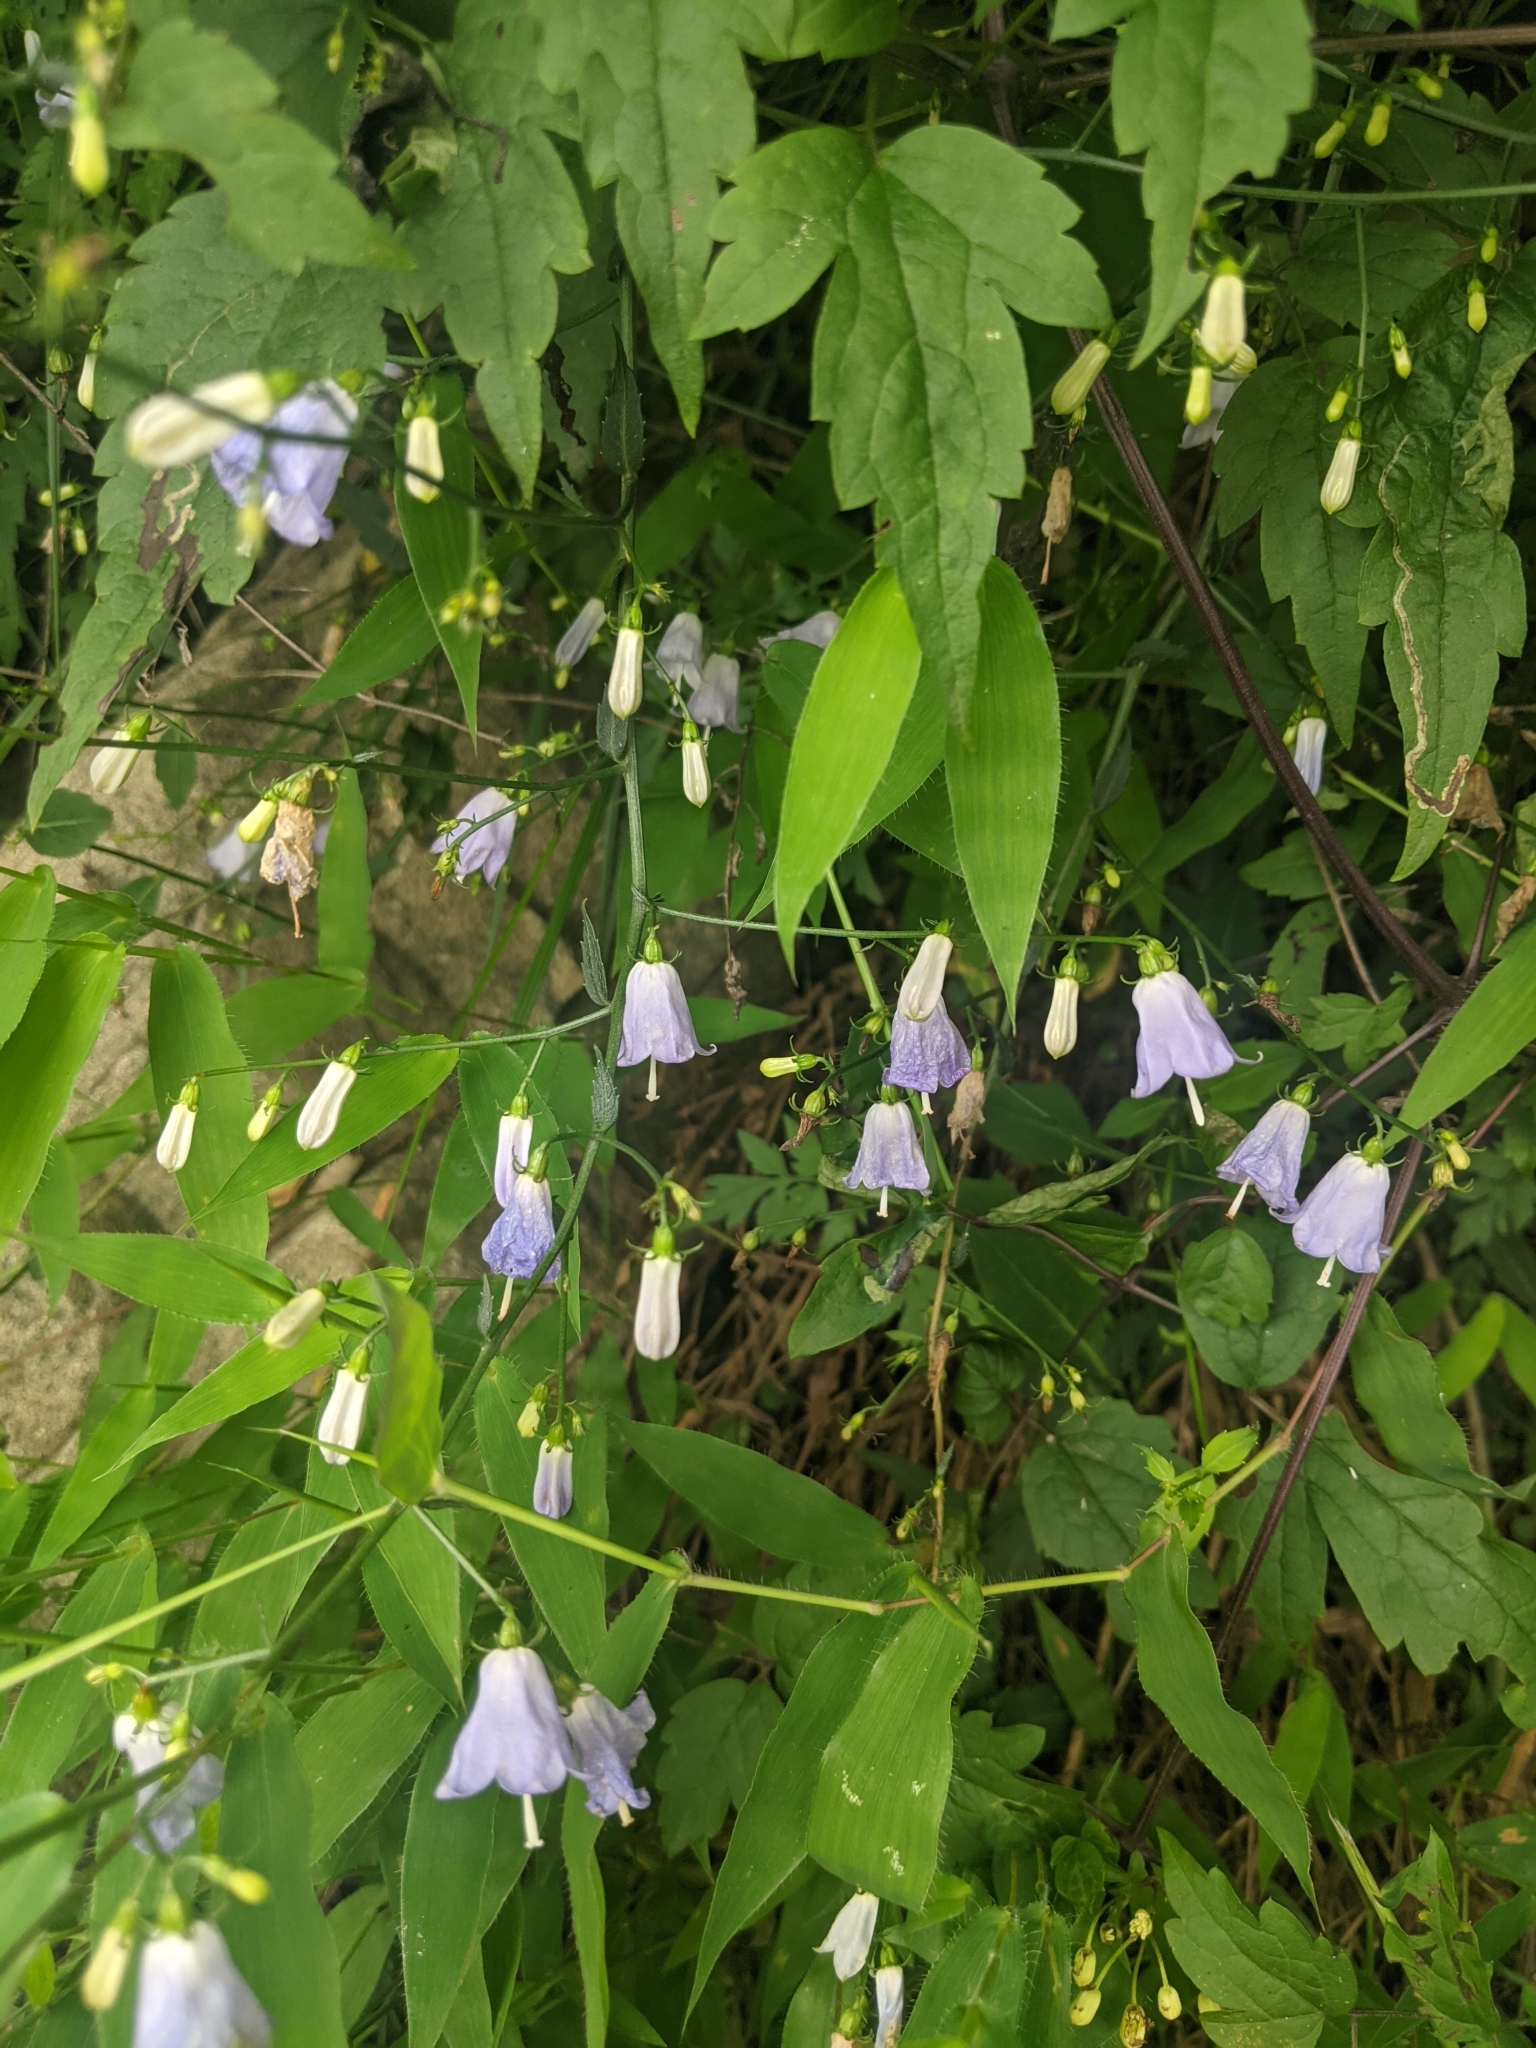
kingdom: Plantae
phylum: Tracheophyta
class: Magnoliopsida
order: Asterales
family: Campanulaceae
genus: Adenophora
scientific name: Adenophora potaninii
